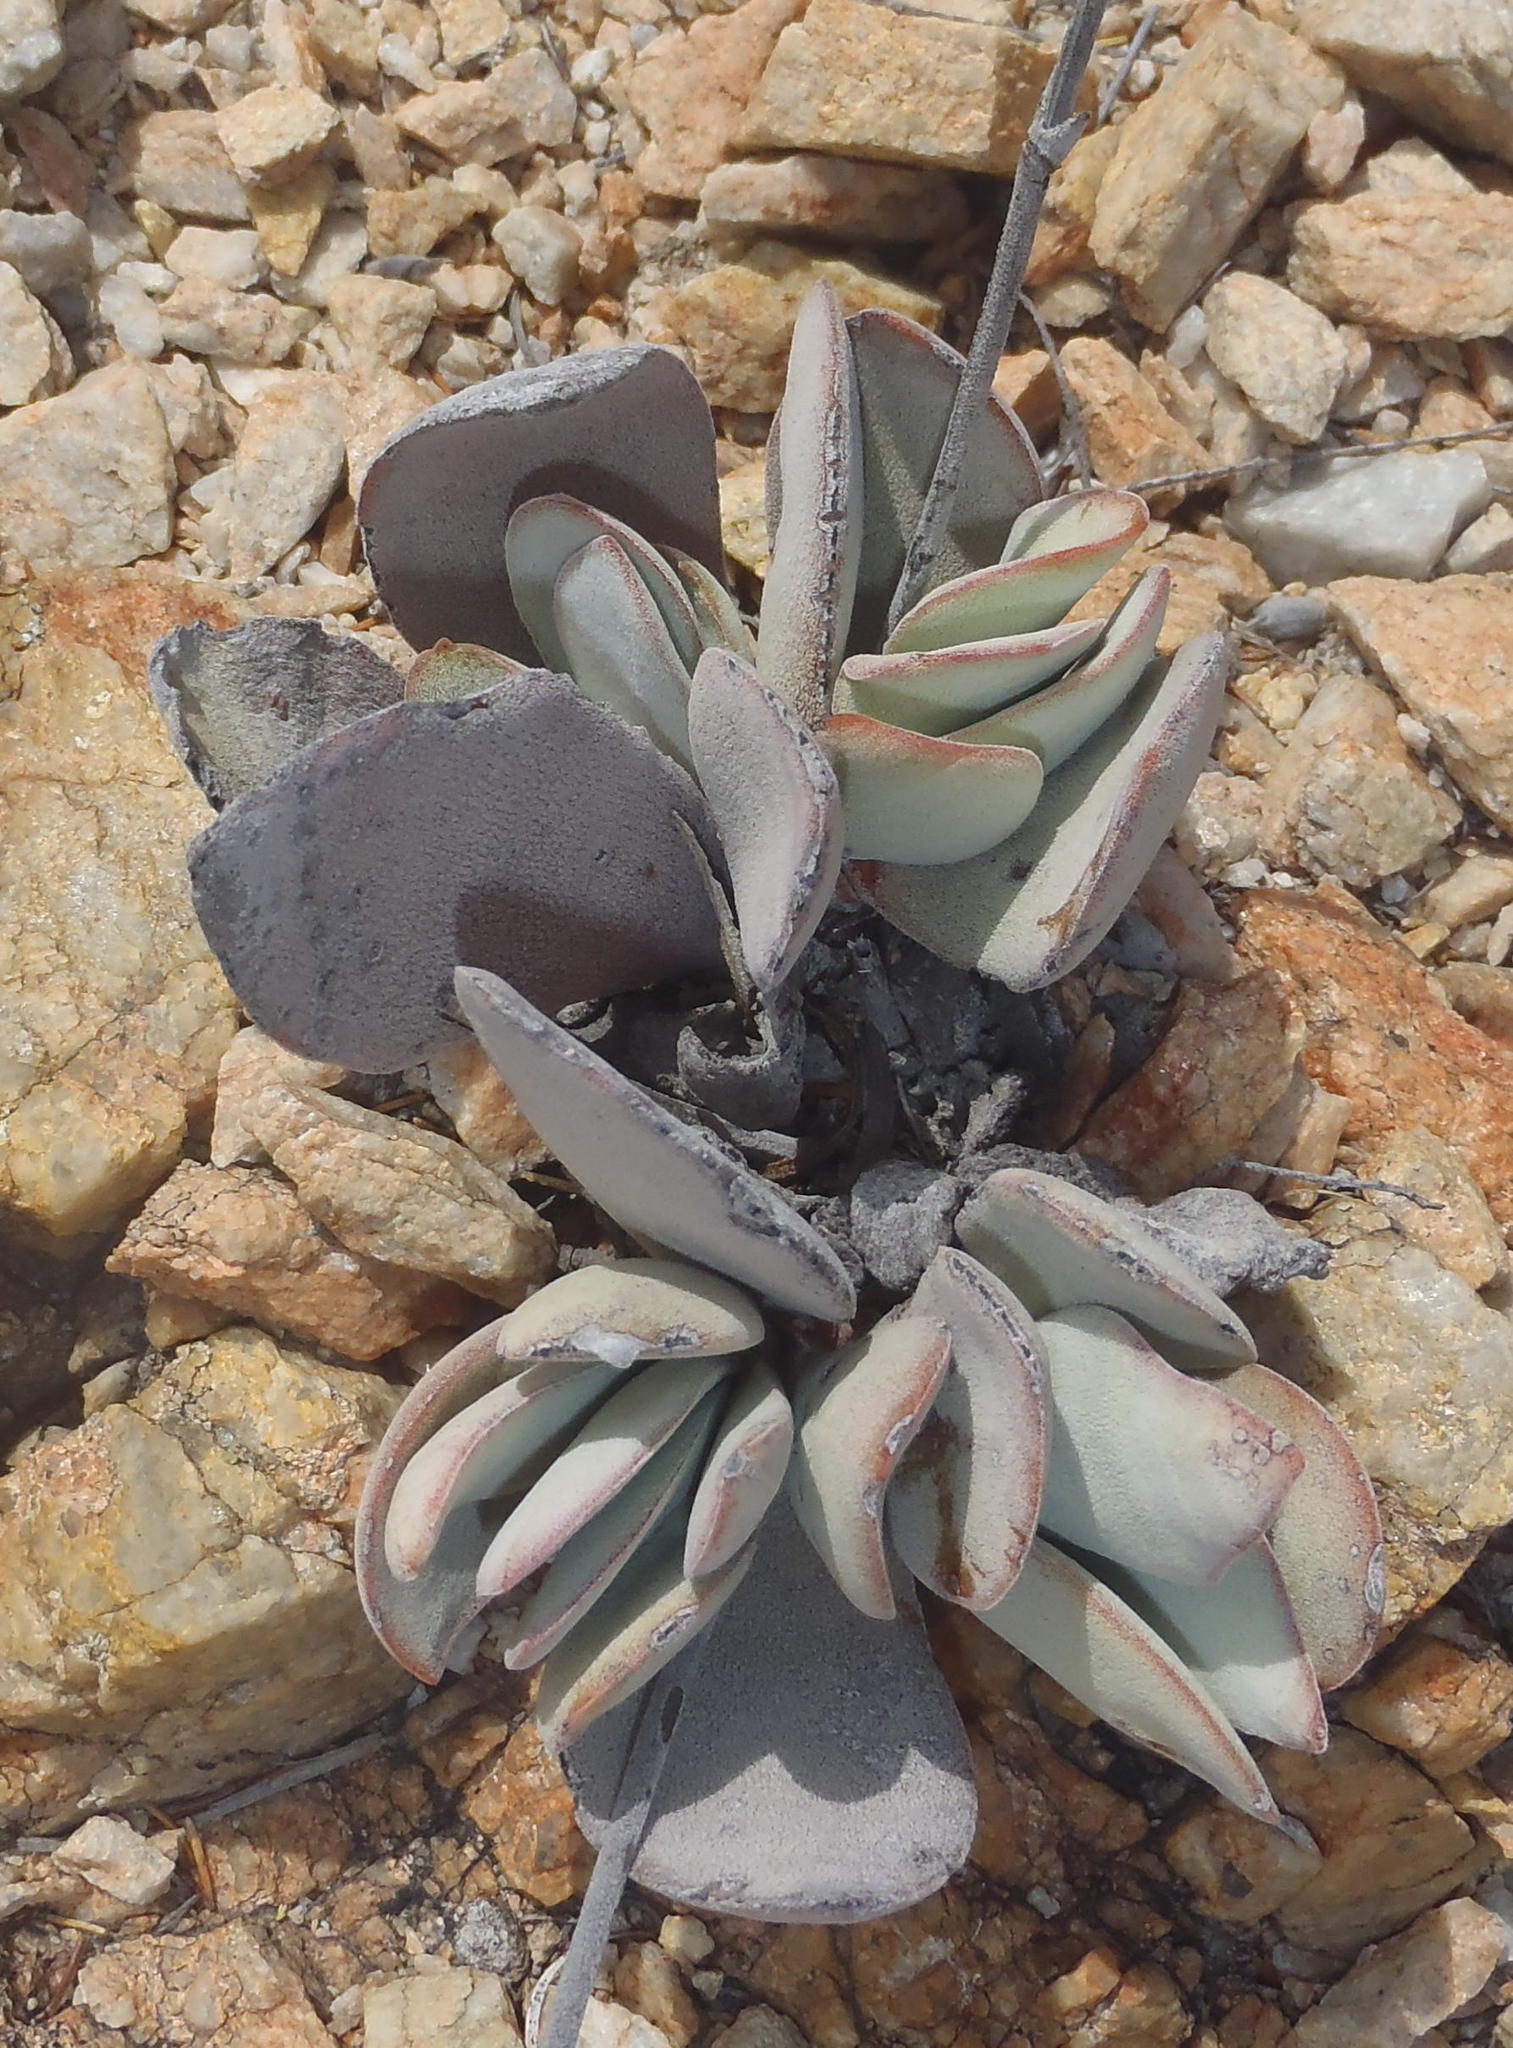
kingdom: Plantae
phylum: Tracheophyta
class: Magnoliopsida
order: Saxifragales
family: Crassulaceae
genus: Crassula
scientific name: Crassula cotyledonis
